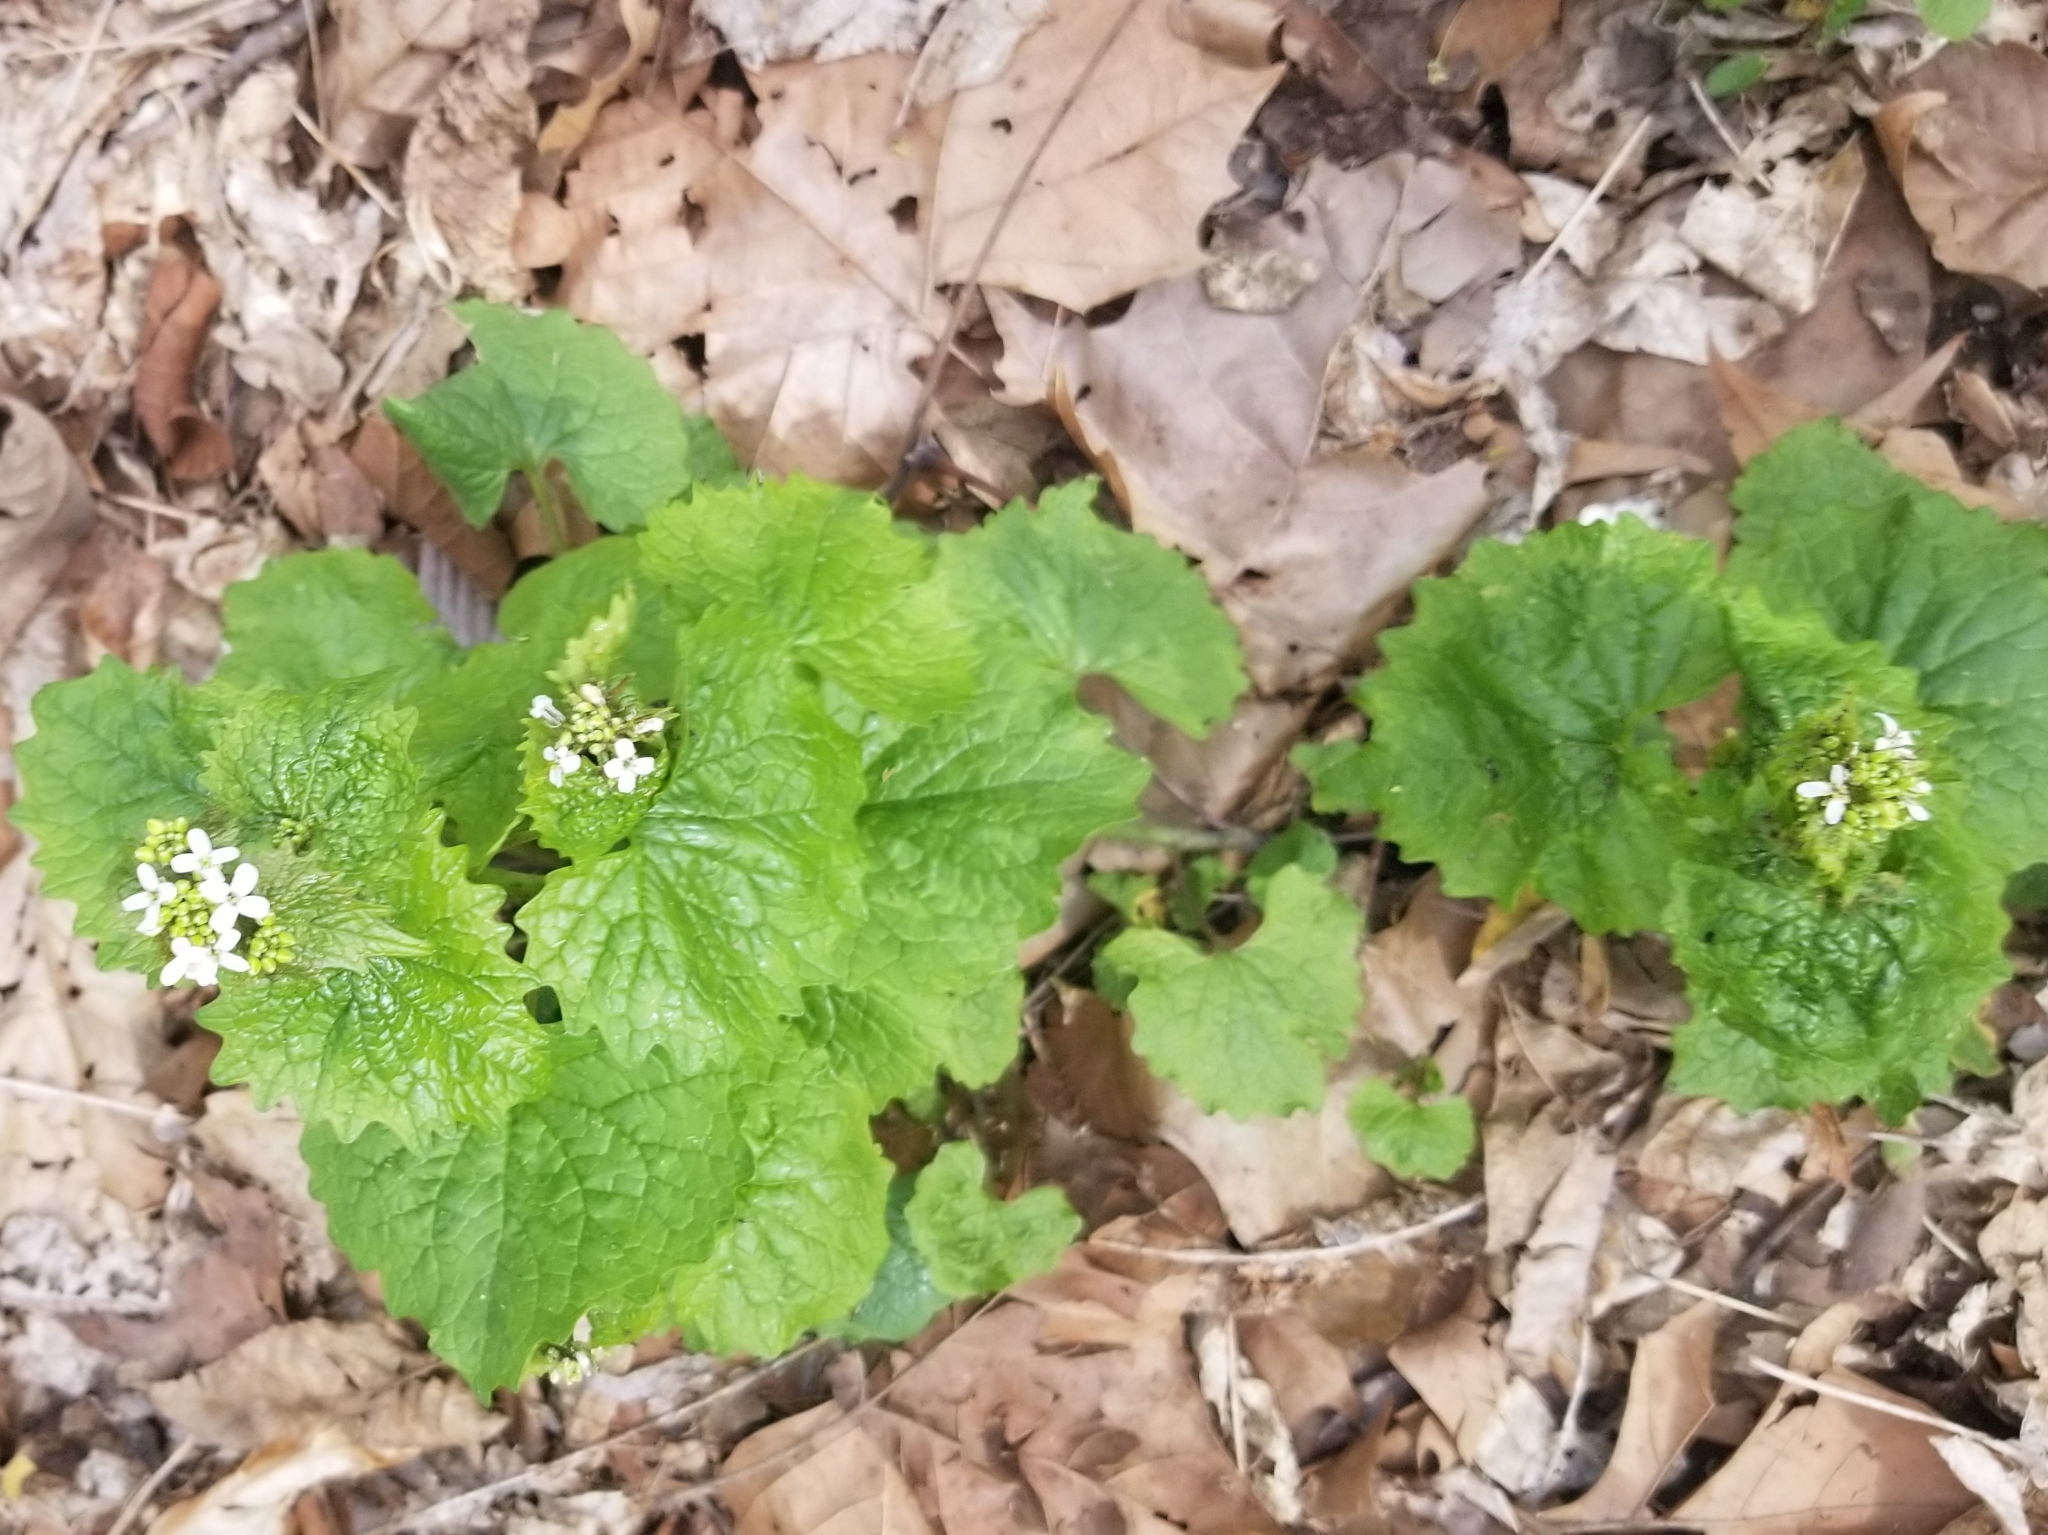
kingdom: Plantae
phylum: Tracheophyta
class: Magnoliopsida
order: Brassicales
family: Brassicaceae
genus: Alliaria
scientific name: Alliaria petiolata
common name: Garlic mustard
